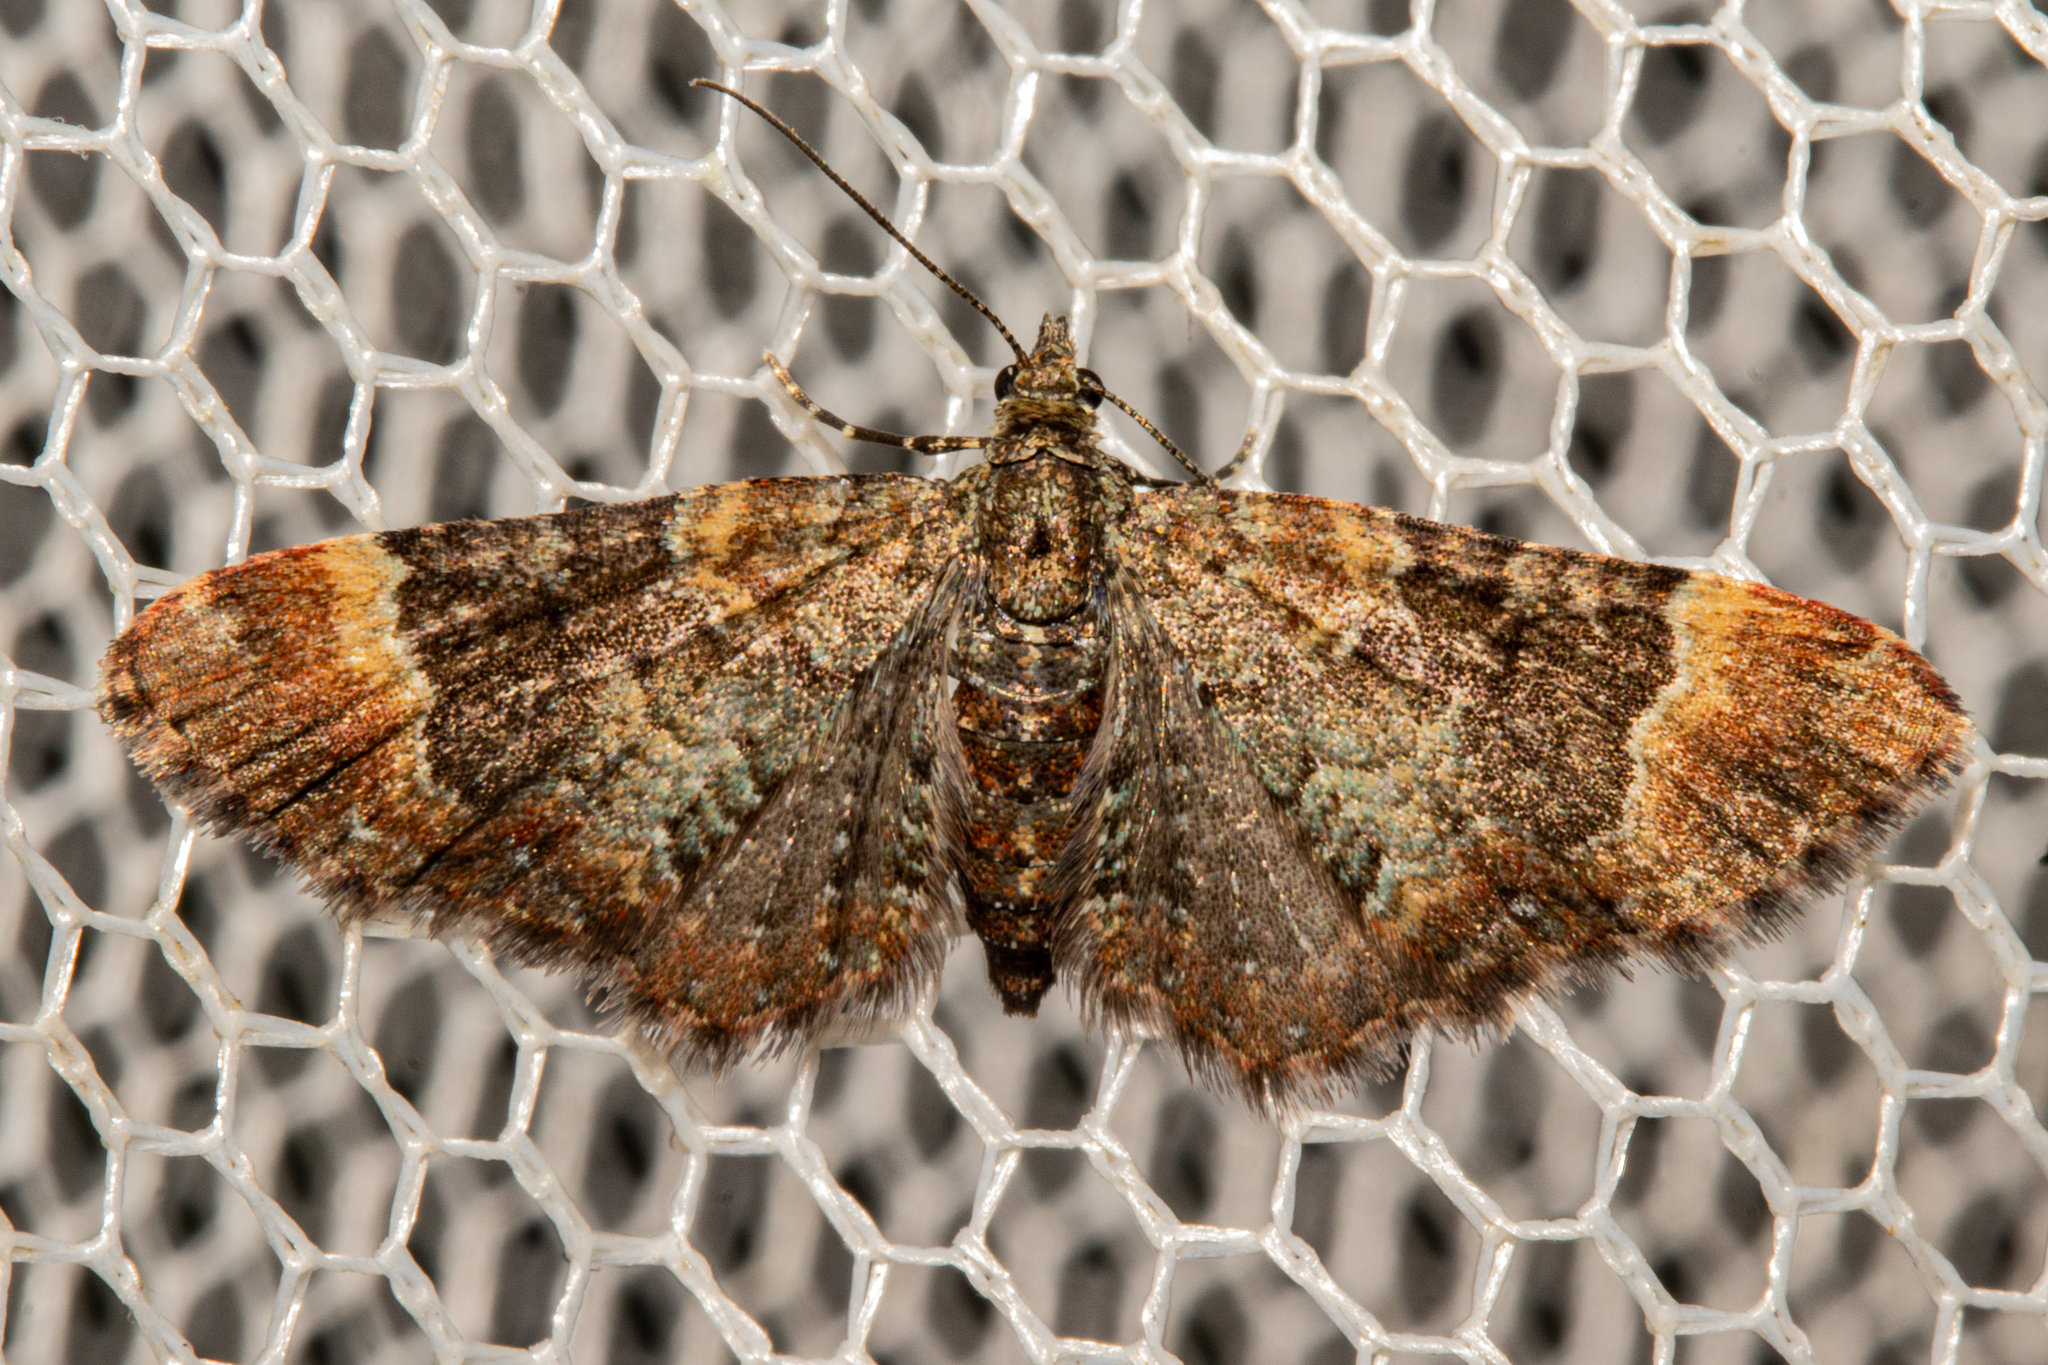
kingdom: Animalia
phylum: Arthropoda
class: Insecta
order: Lepidoptera
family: Geometridae
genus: Pasiphila
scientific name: Pasiphila rivalis
